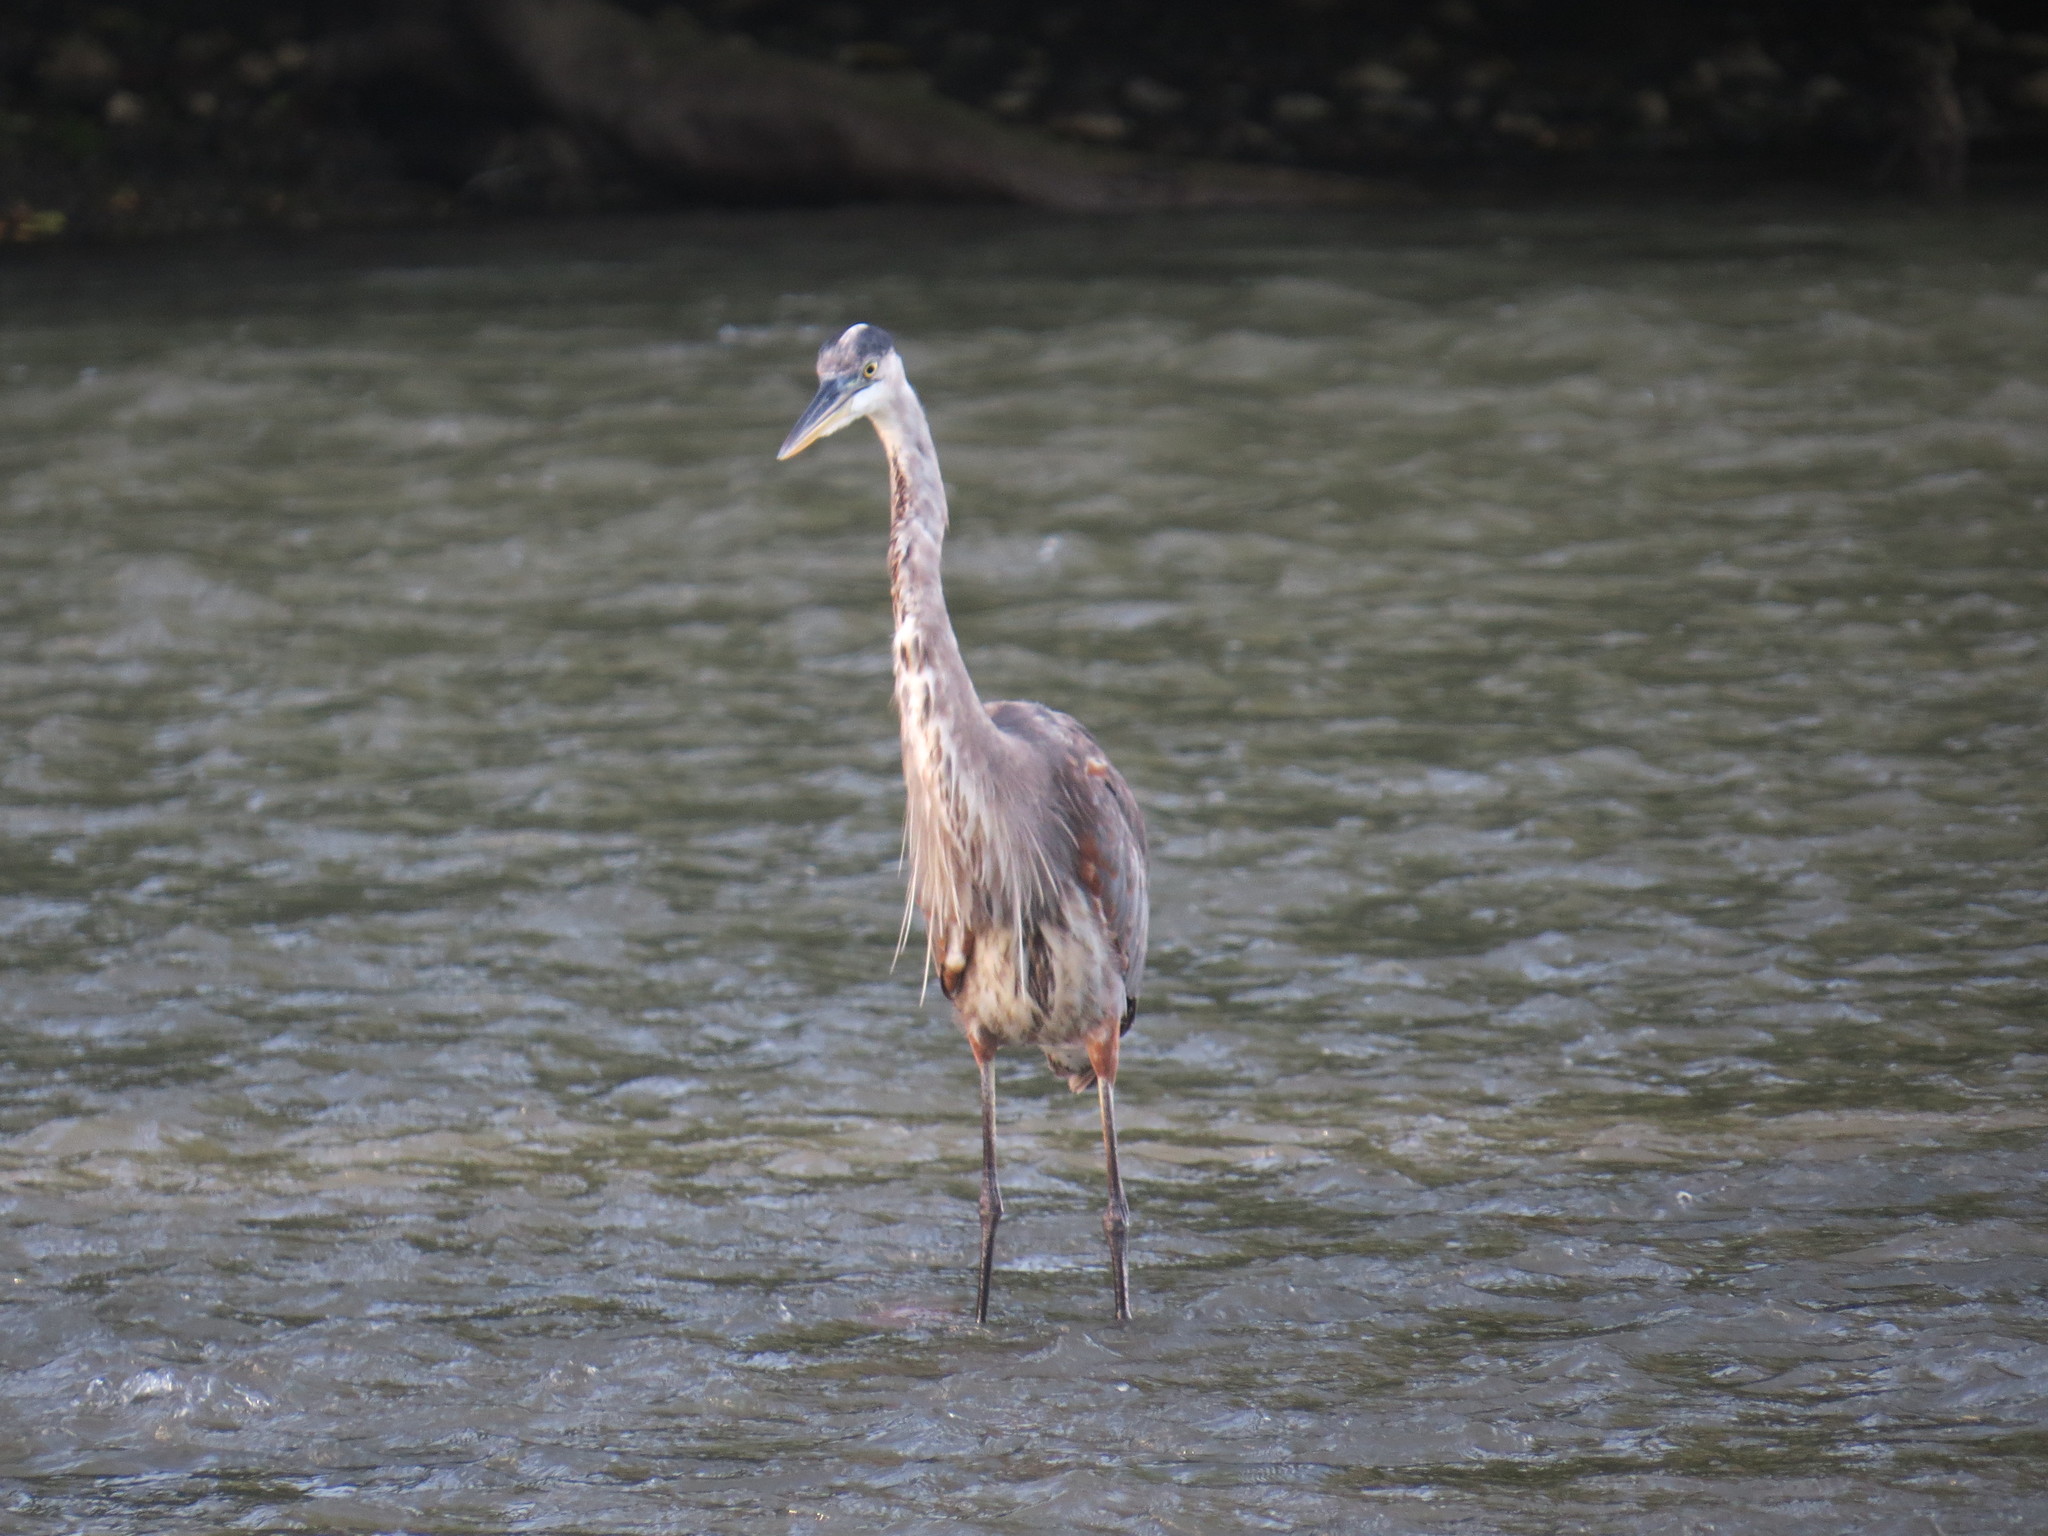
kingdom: Animalia
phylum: Chordata
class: Aves
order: Pelecaniformes
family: Ardeidae
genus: Ardea
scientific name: Ardea herodias
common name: Great blue heron
